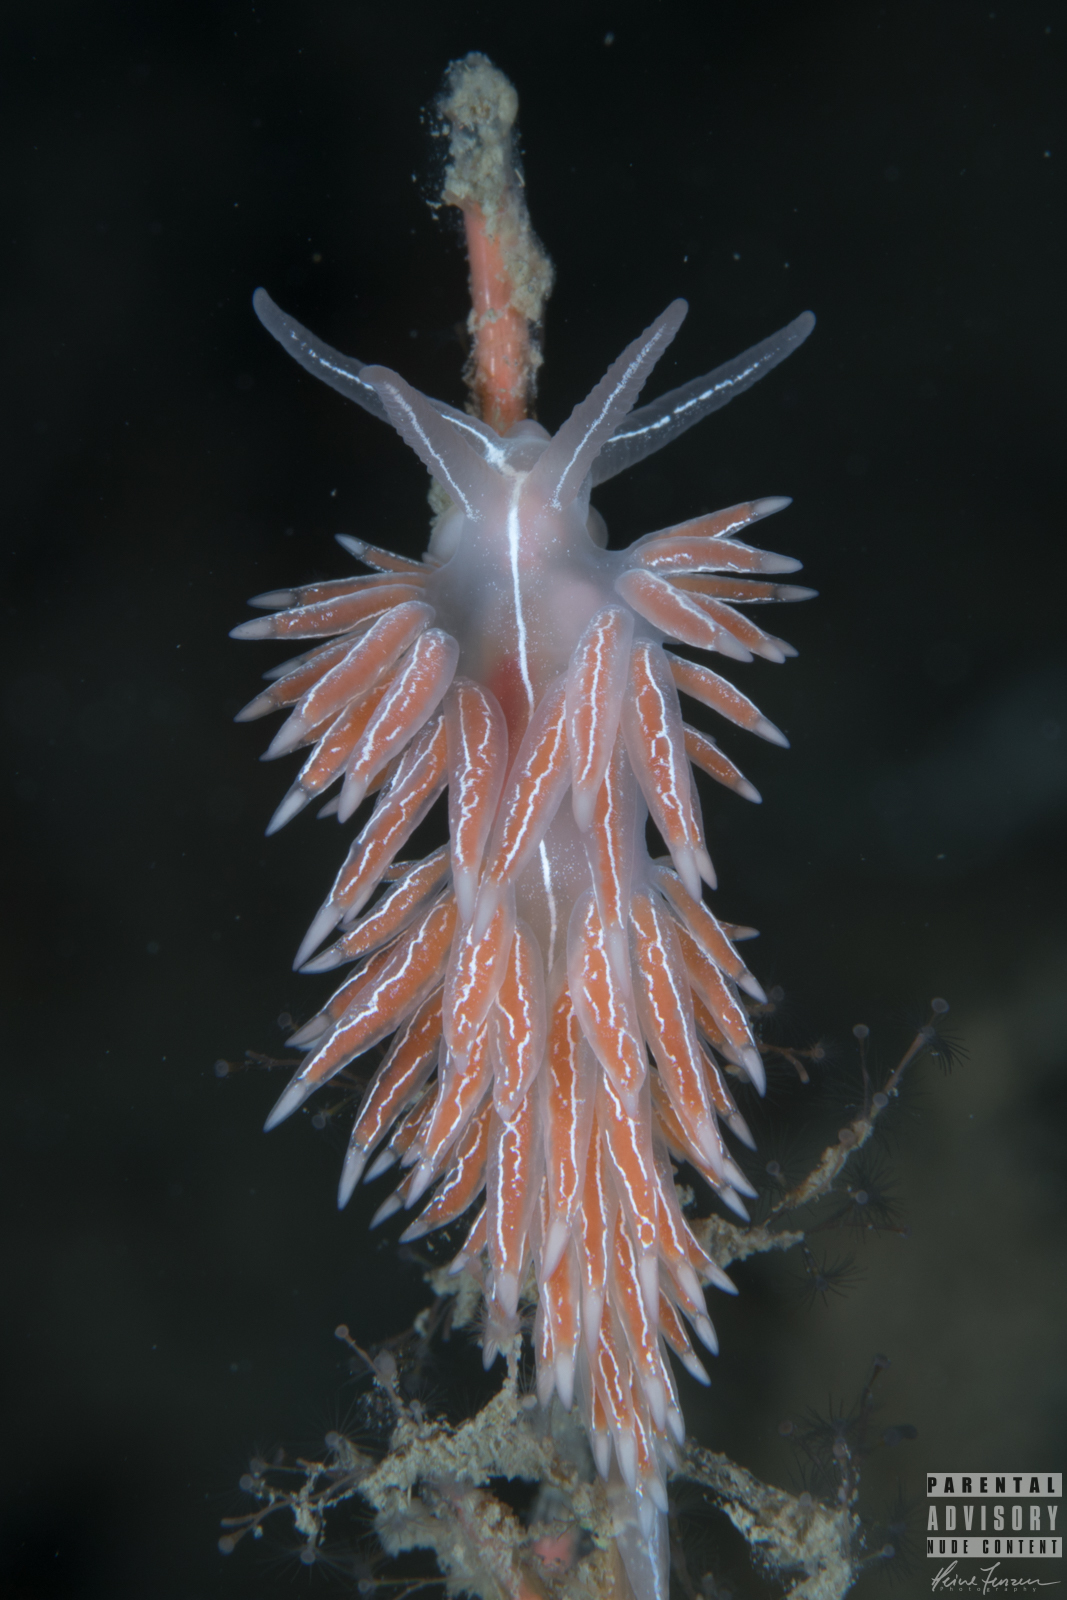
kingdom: Animalia
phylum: Mollusca
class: Gastropoda
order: Nudibranchia
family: Coryphellidae
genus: Coryphella
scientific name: Coryphella chriskaugei
